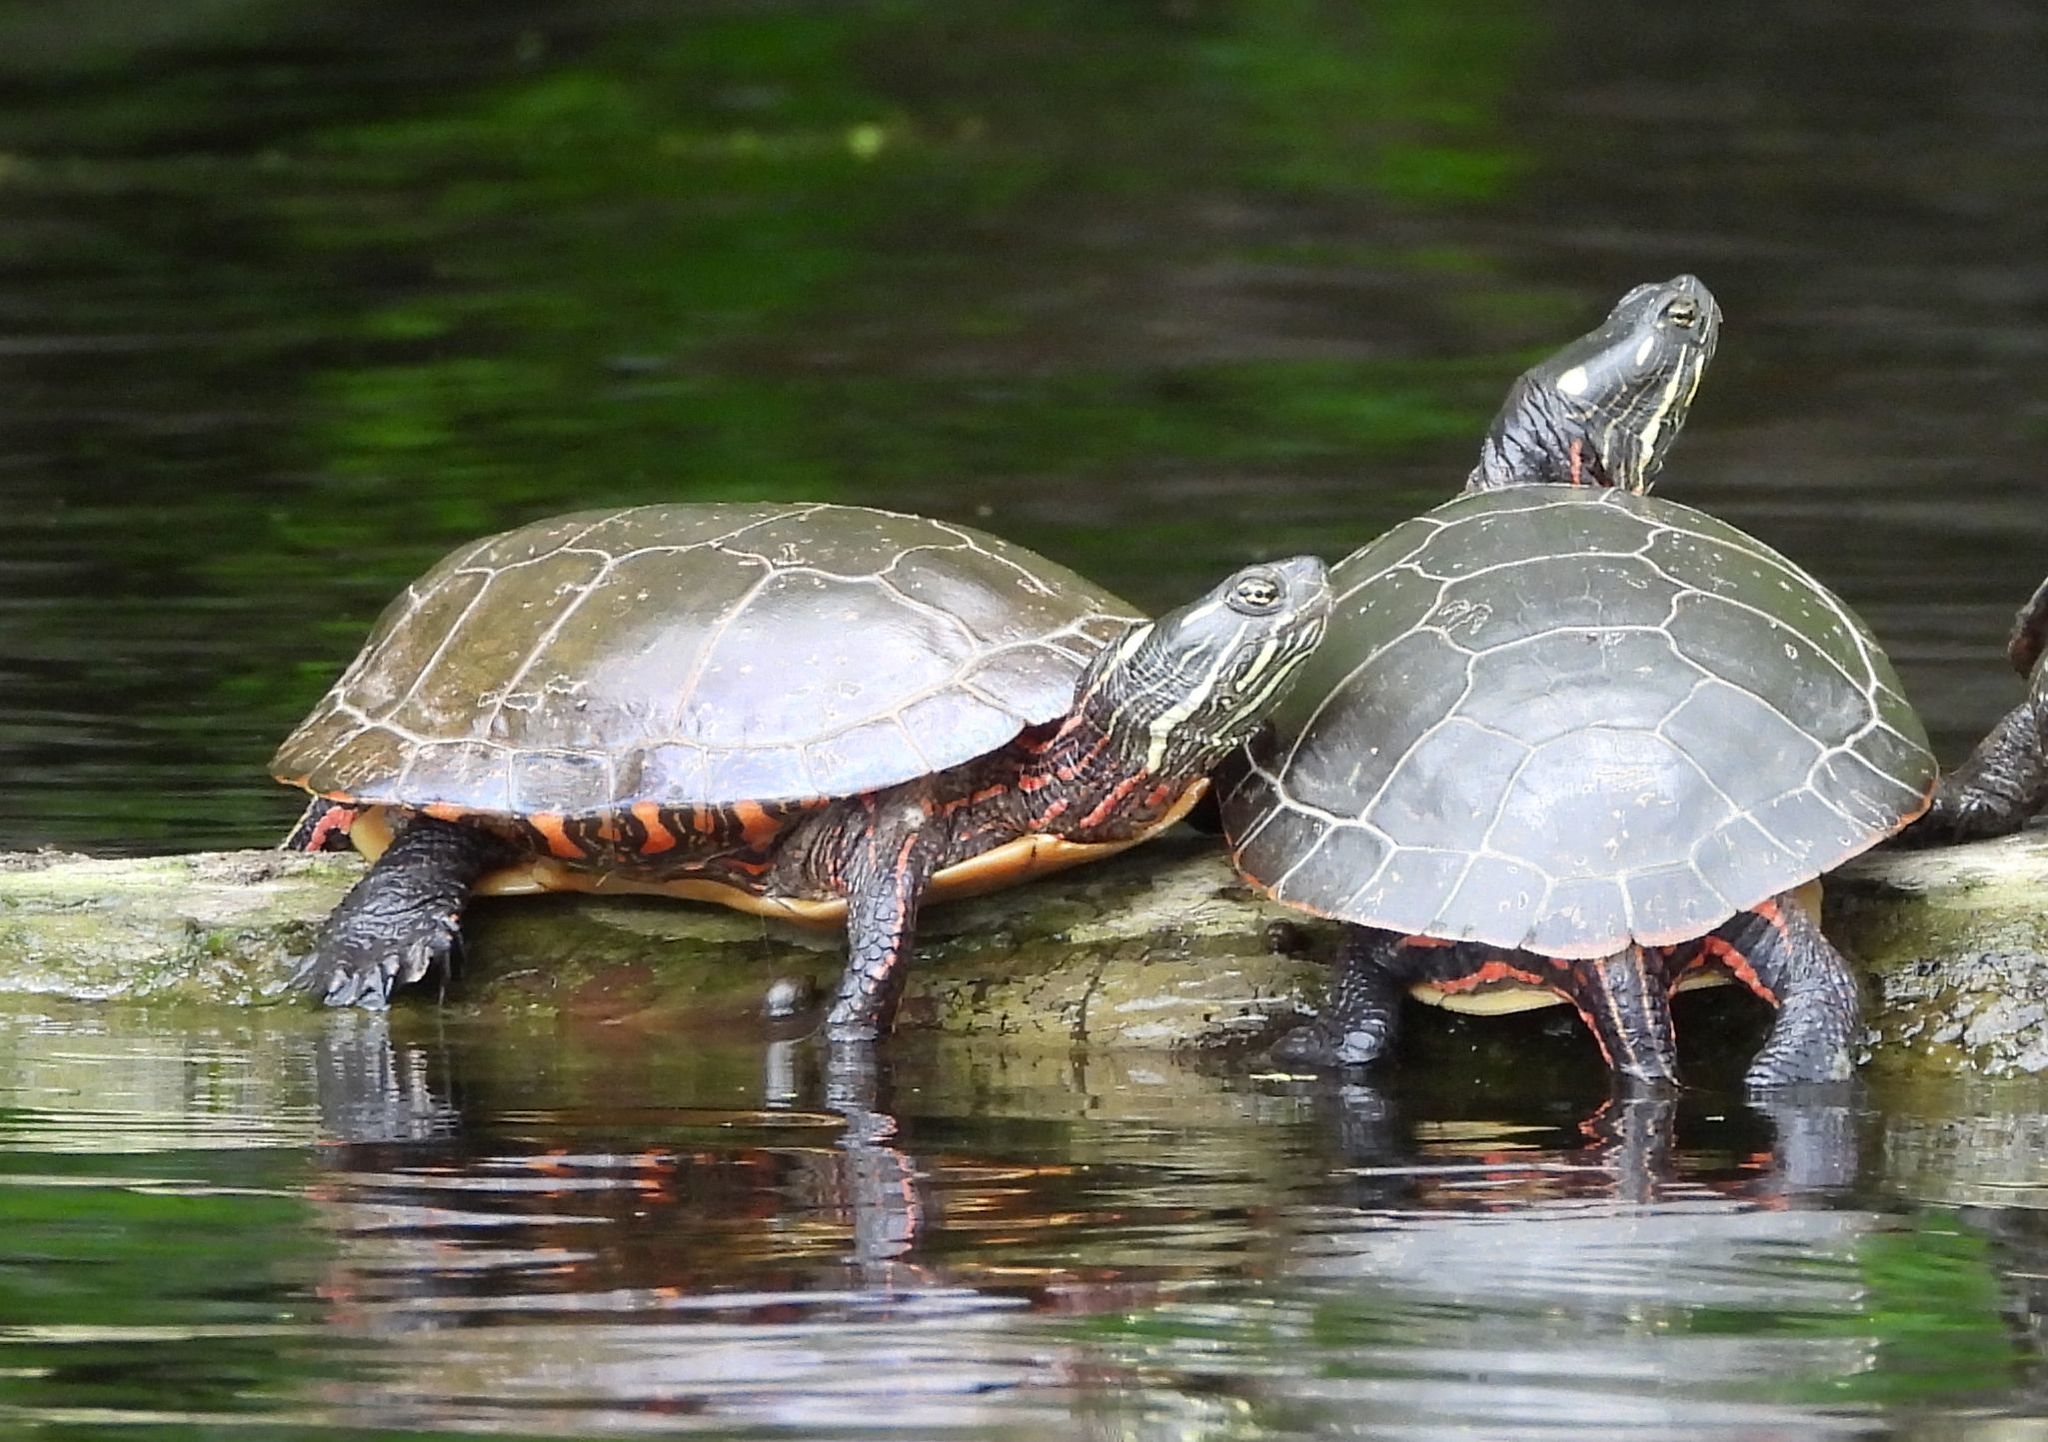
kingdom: Animalia
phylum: Chordata
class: Testudines
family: Emydidae
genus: Chrysemys
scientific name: Chrysemys picta
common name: Painted turtle
